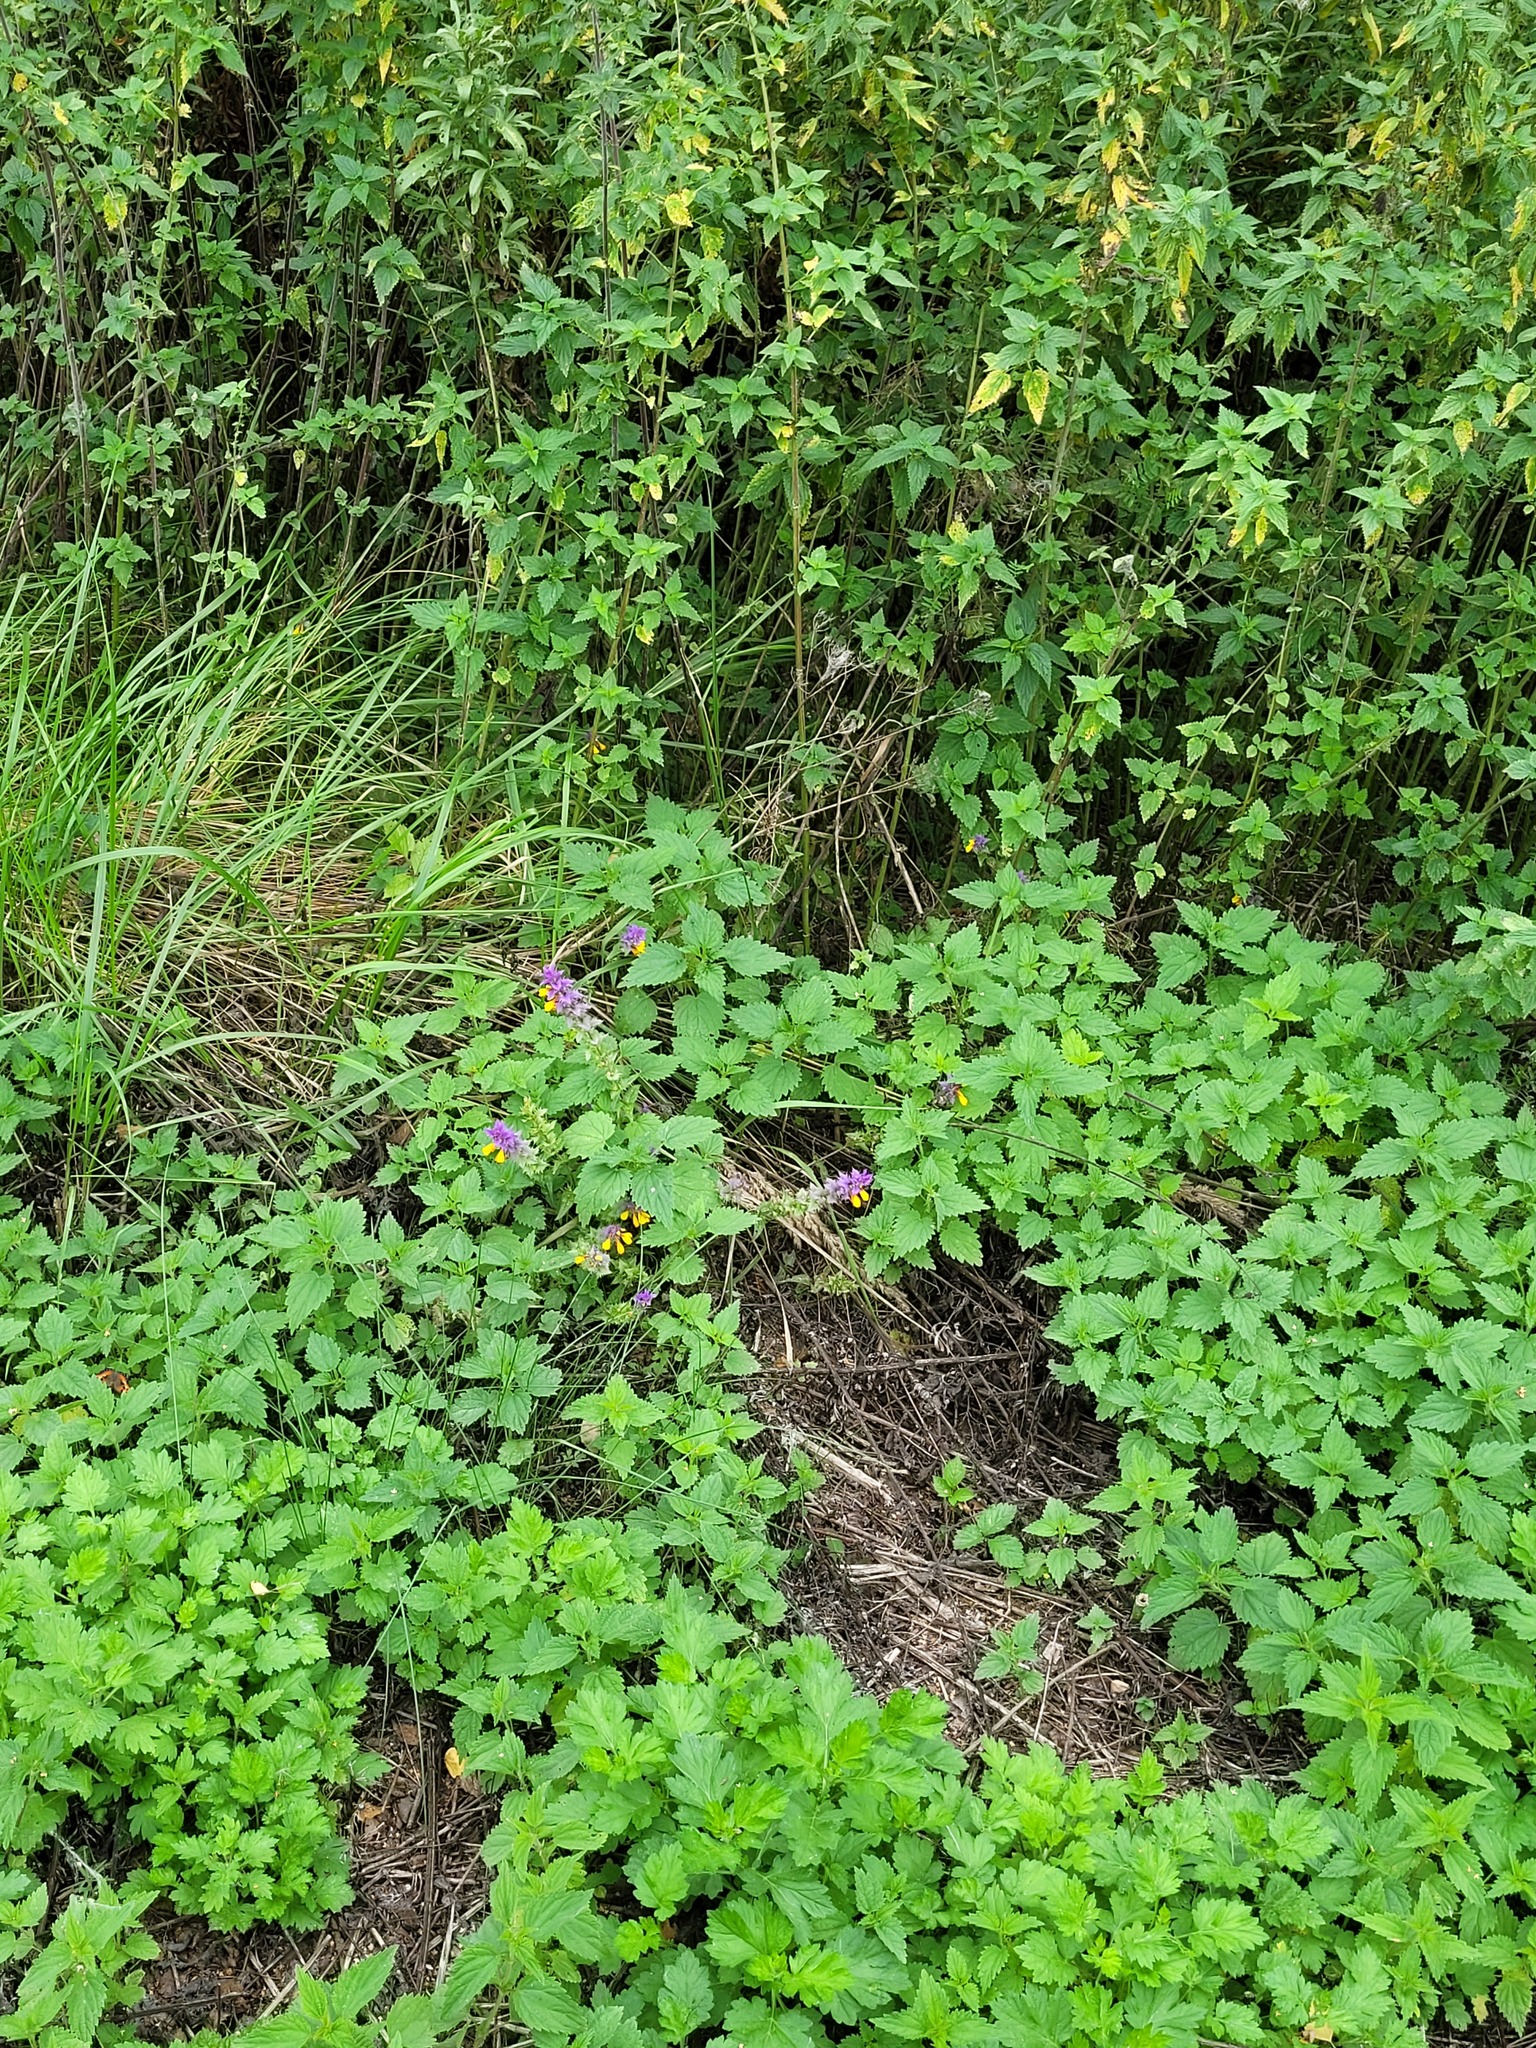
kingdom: Plantae
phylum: Tracheophyta
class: Magnoliopsida
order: Lamiales
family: Orobanchaceae
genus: Melampyrum
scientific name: Melampyrum nemorosum
